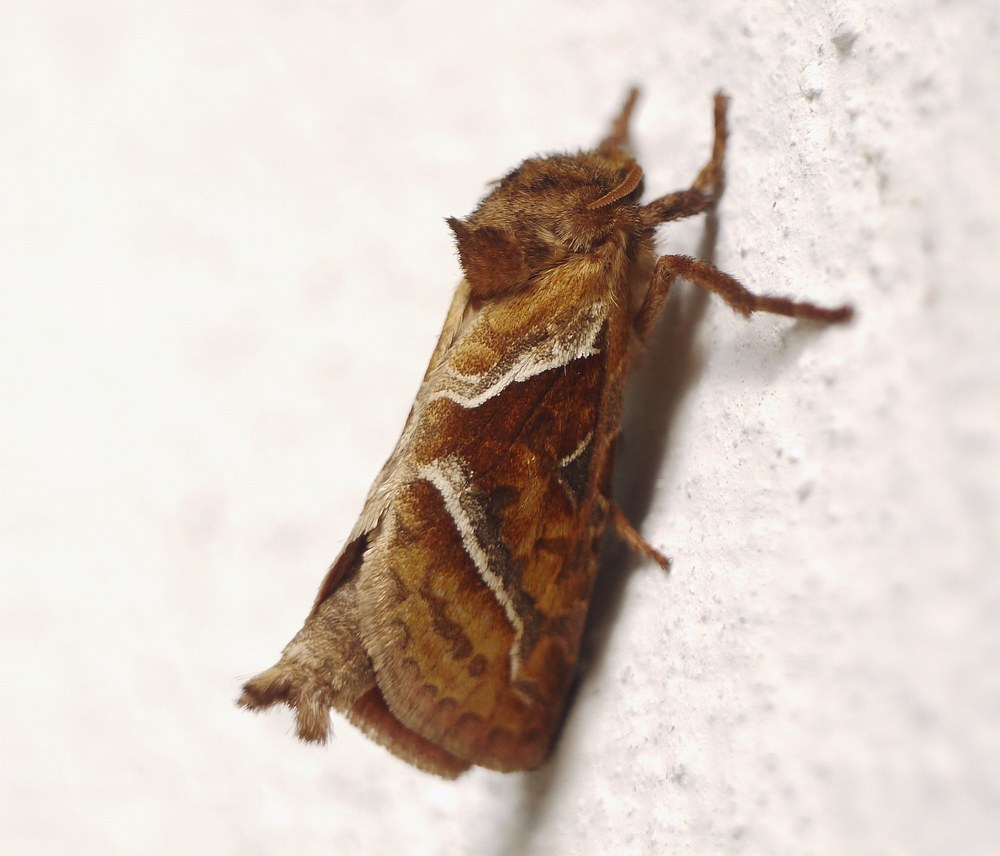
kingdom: Animalia
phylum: Arthropoda
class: Insecta
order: Lepidoptera
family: Hepialidae
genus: Triodia
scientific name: Triodia sylvina
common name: Orange swift
